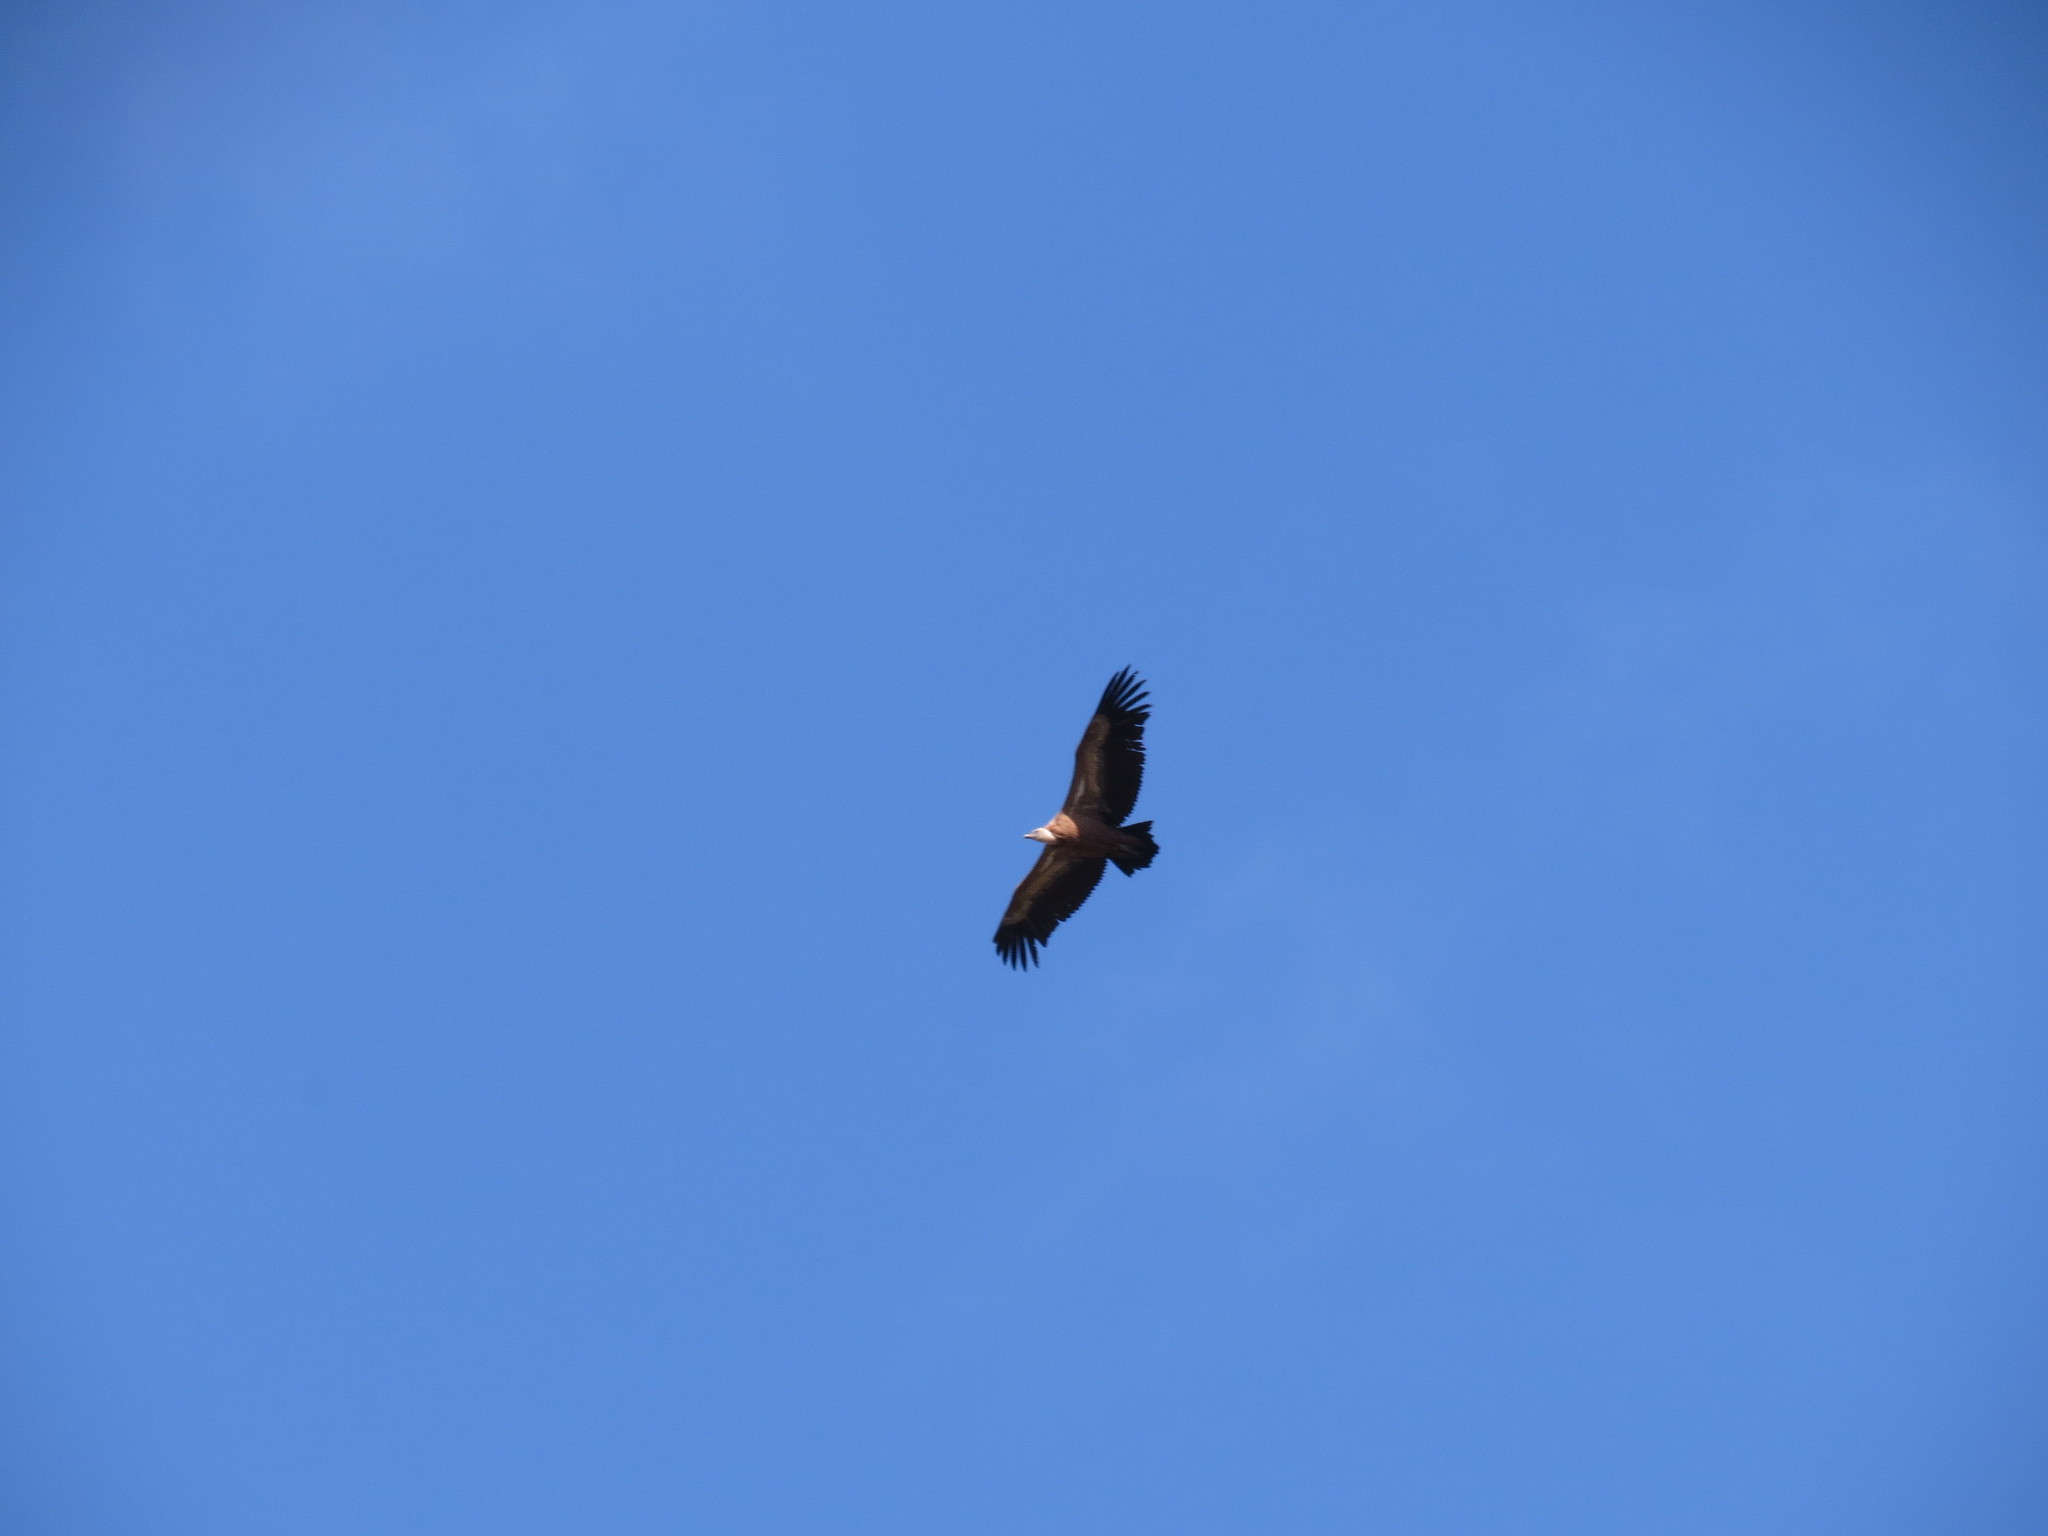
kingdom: Animalia
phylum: Chordata
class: Aves
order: Accipitriformes
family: Accipitridae
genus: Gyps
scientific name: Gyps fulvus
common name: Griffon vulture
